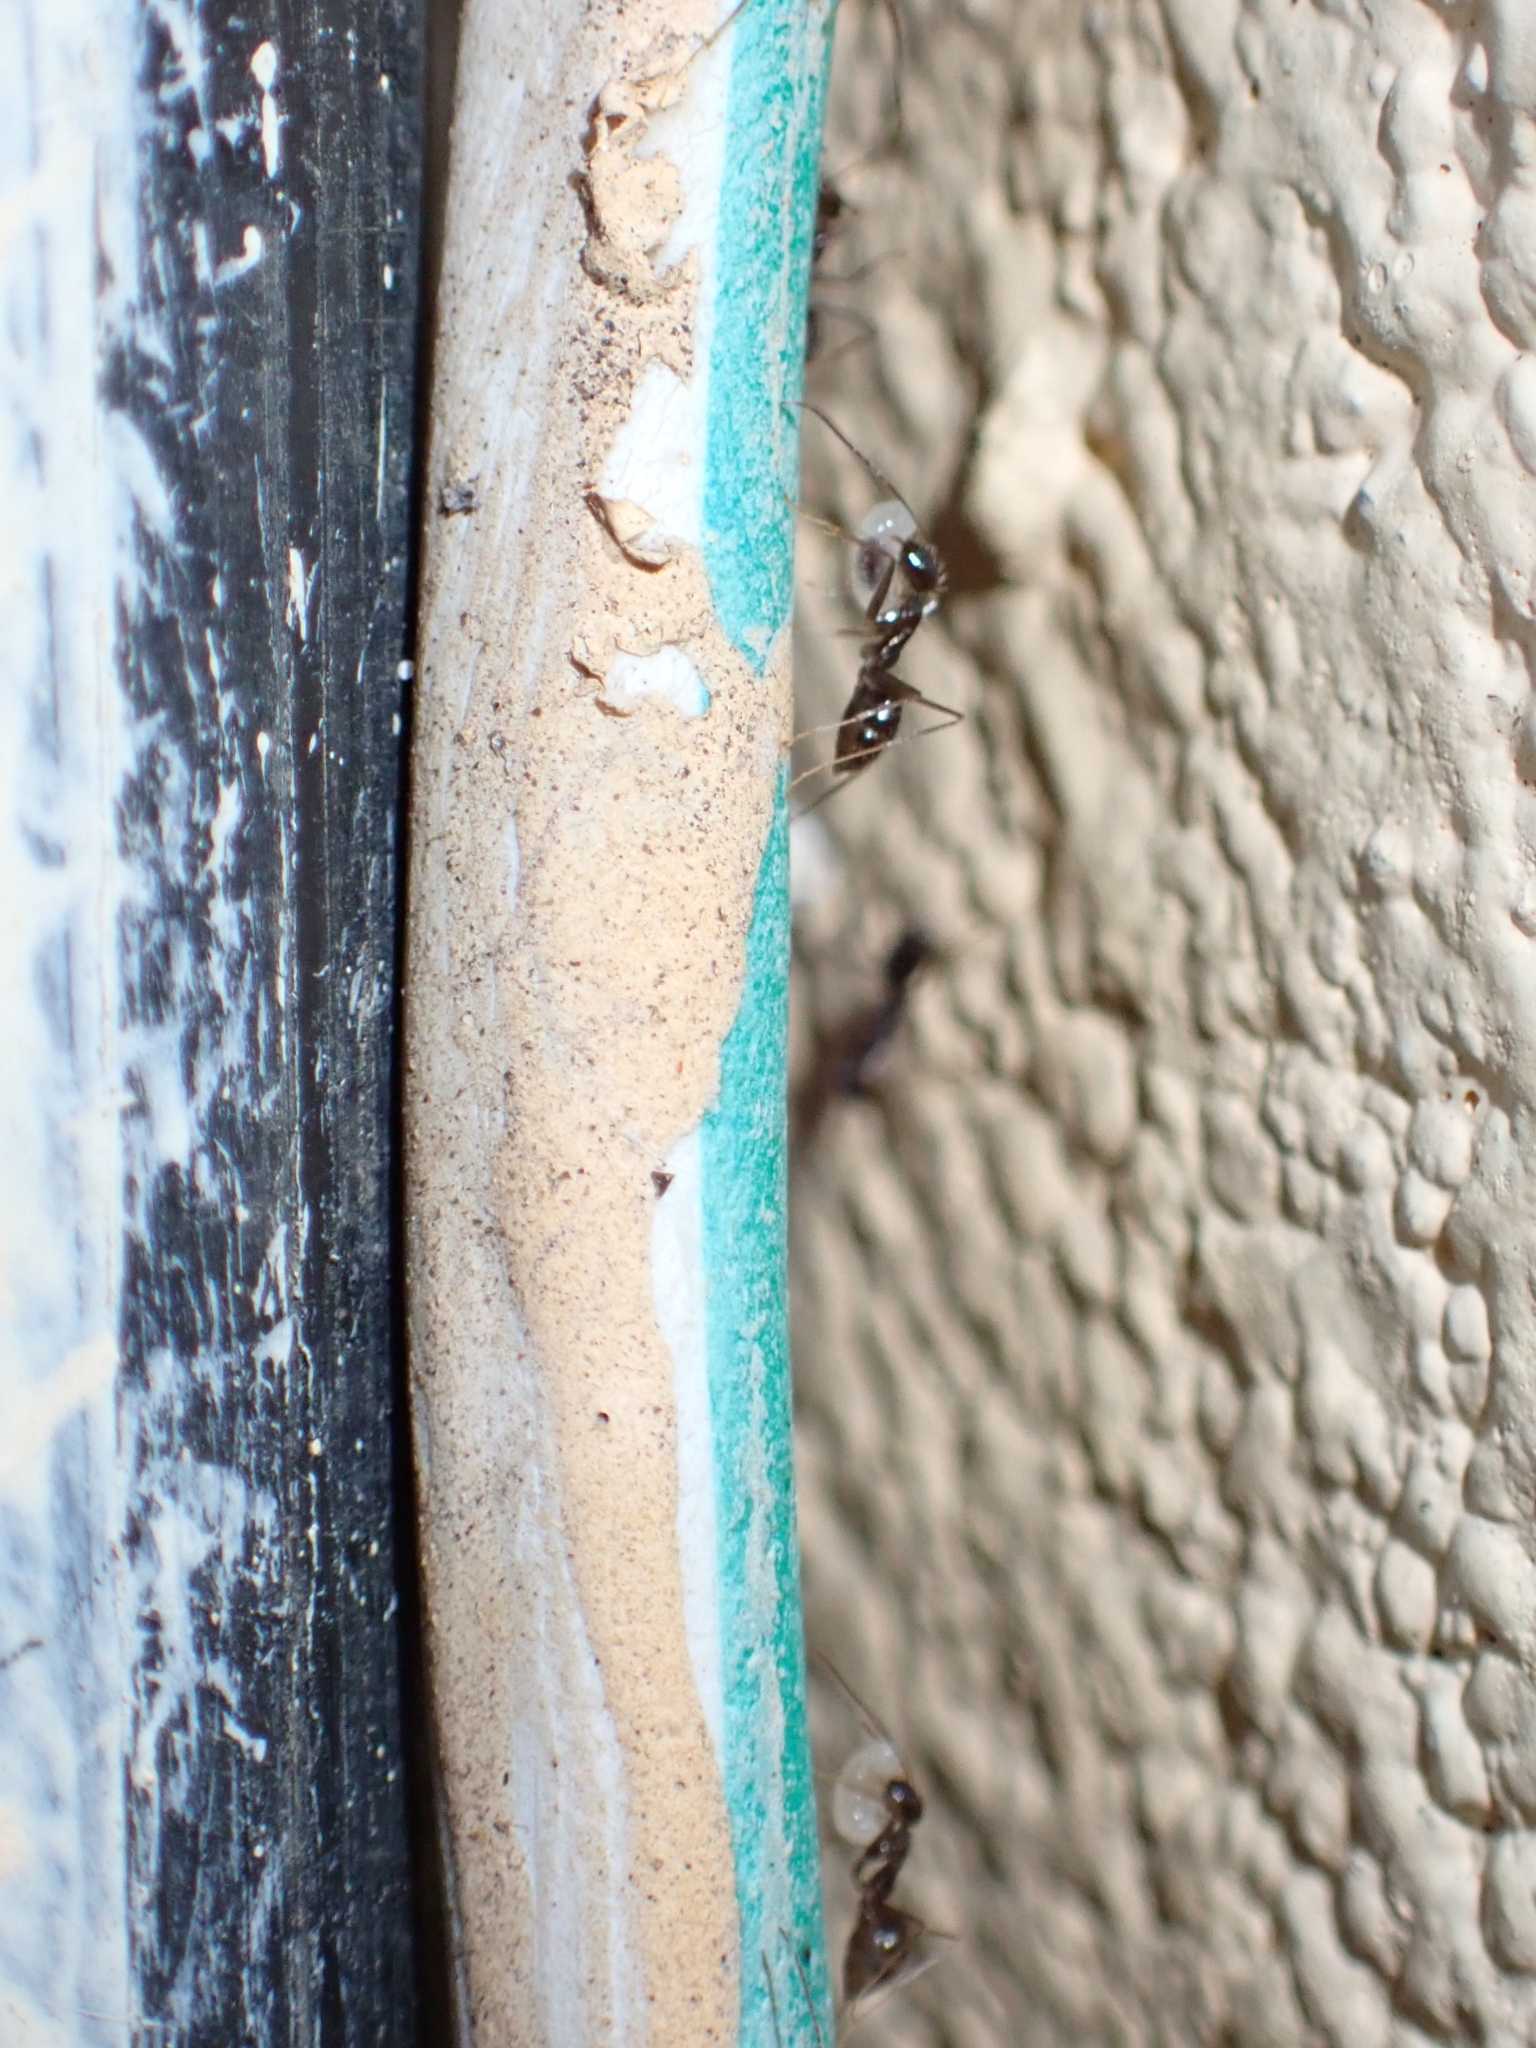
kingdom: Animalia
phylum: Arthropoda
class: Insecta
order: Hymenoptera
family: Formicidae
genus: Paratrechina
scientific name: Paratrechina longicornis
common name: Longhorned crazy ant
